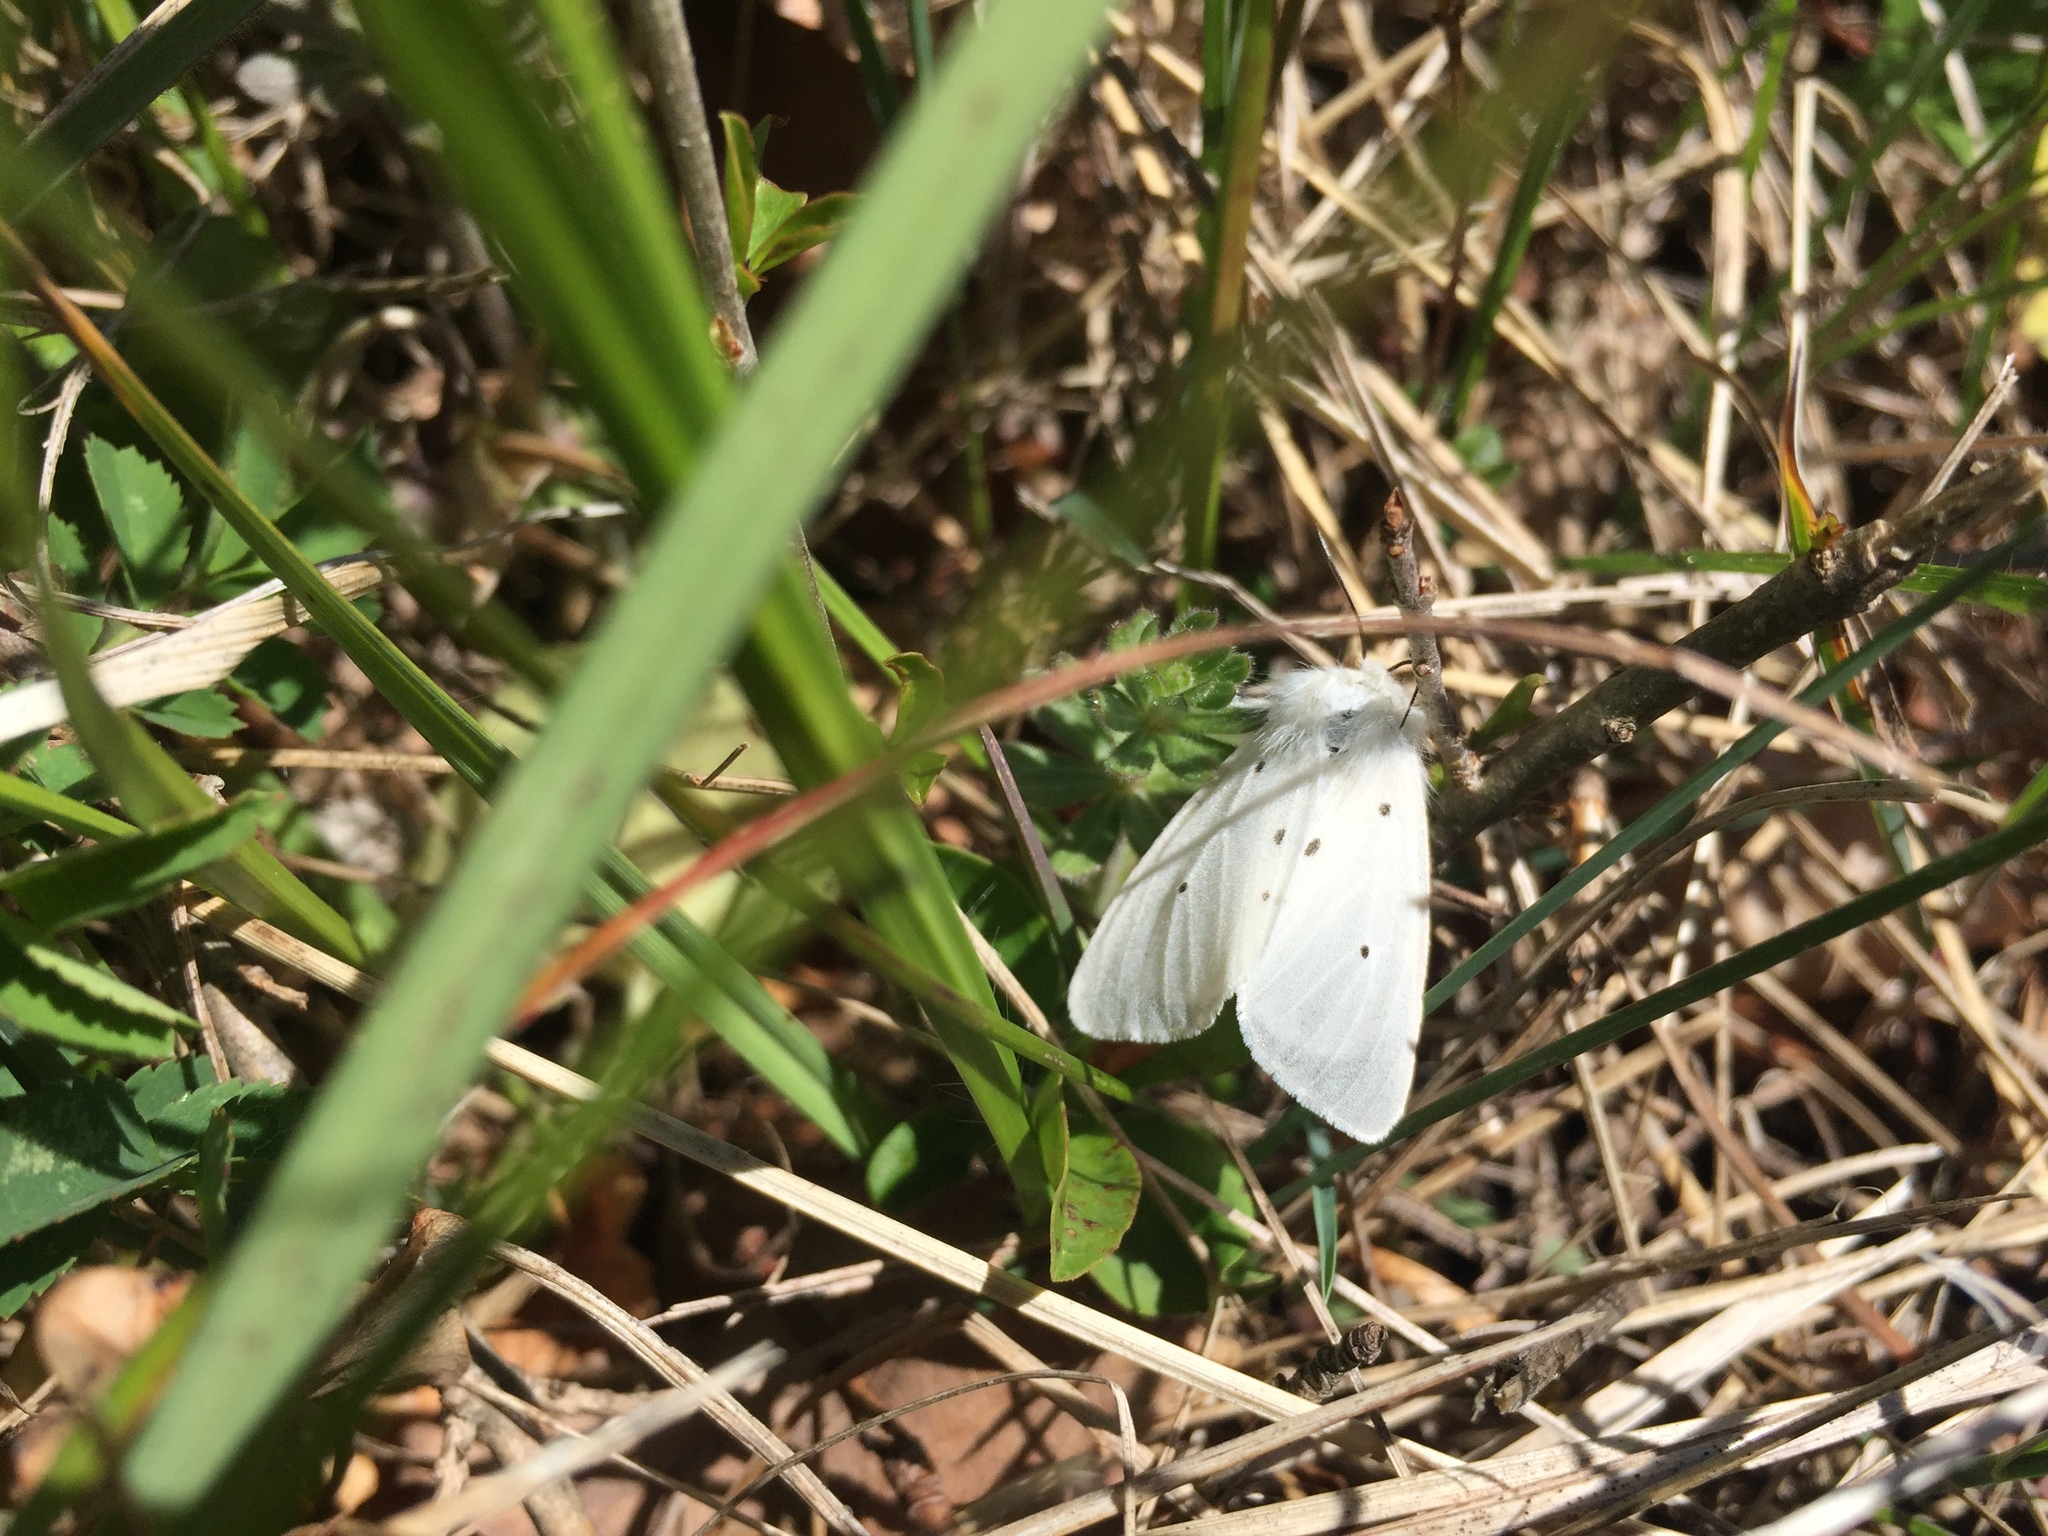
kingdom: Animalia
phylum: Arthropoda
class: Insecta
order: Lepidoptera
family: Erebidae
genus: Diaphora
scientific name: Diaphora mendica
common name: Muslin moth
